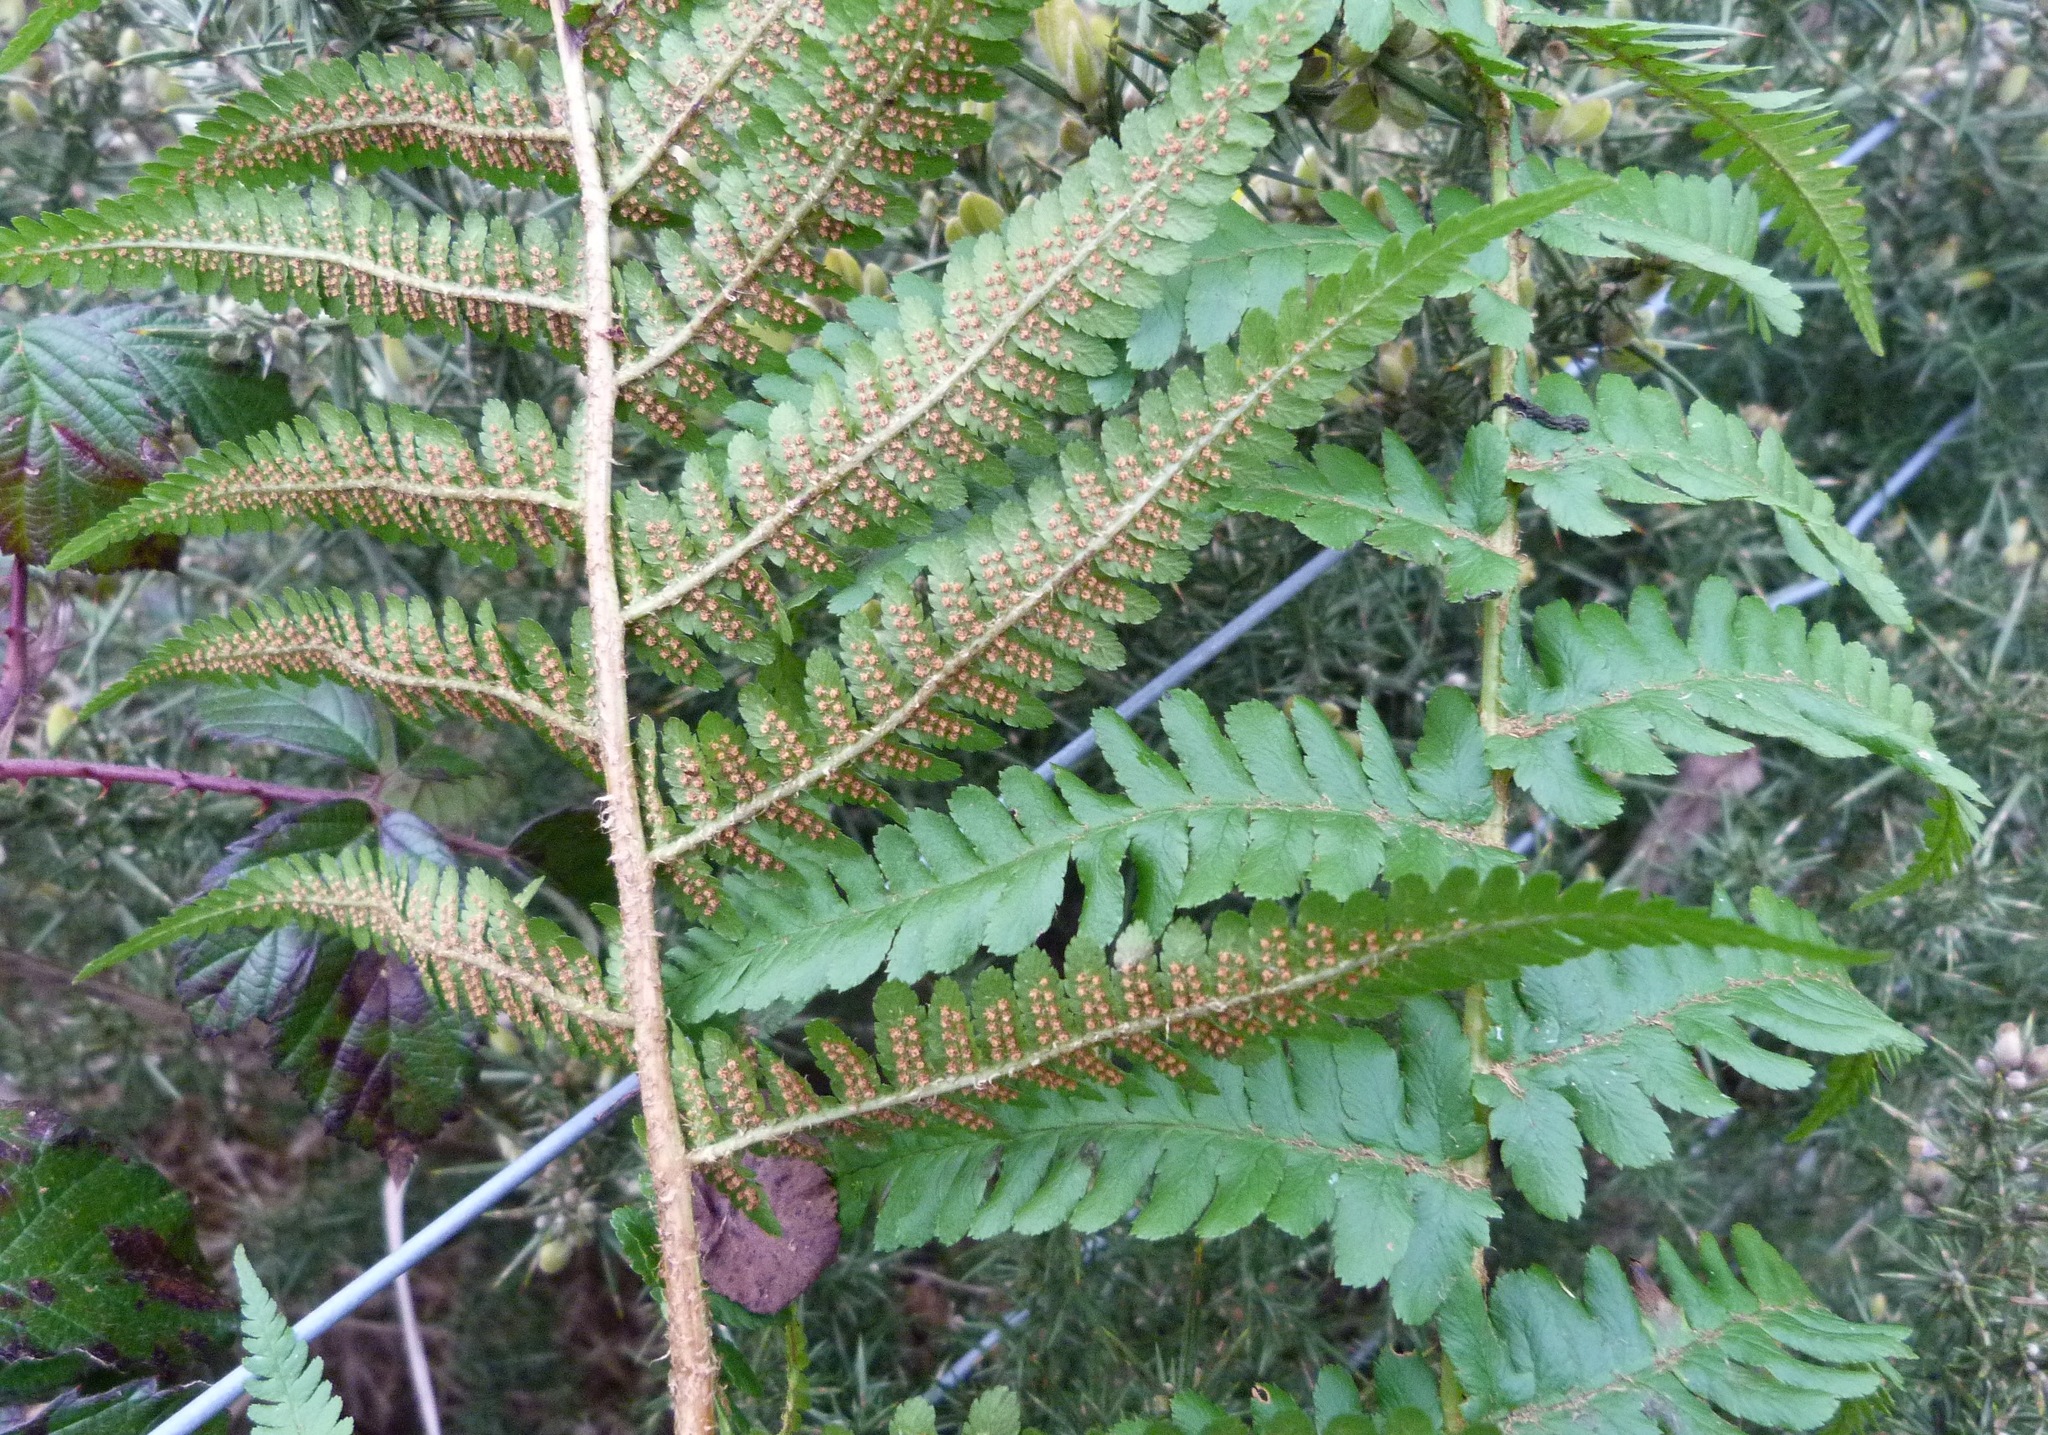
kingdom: Plantae
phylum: Tracheophyta
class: Polypodiopsida
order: Polypodiales
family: Dryopteridaceae
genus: Dryopteris
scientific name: Dryopteris filix-mas
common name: Male fern
